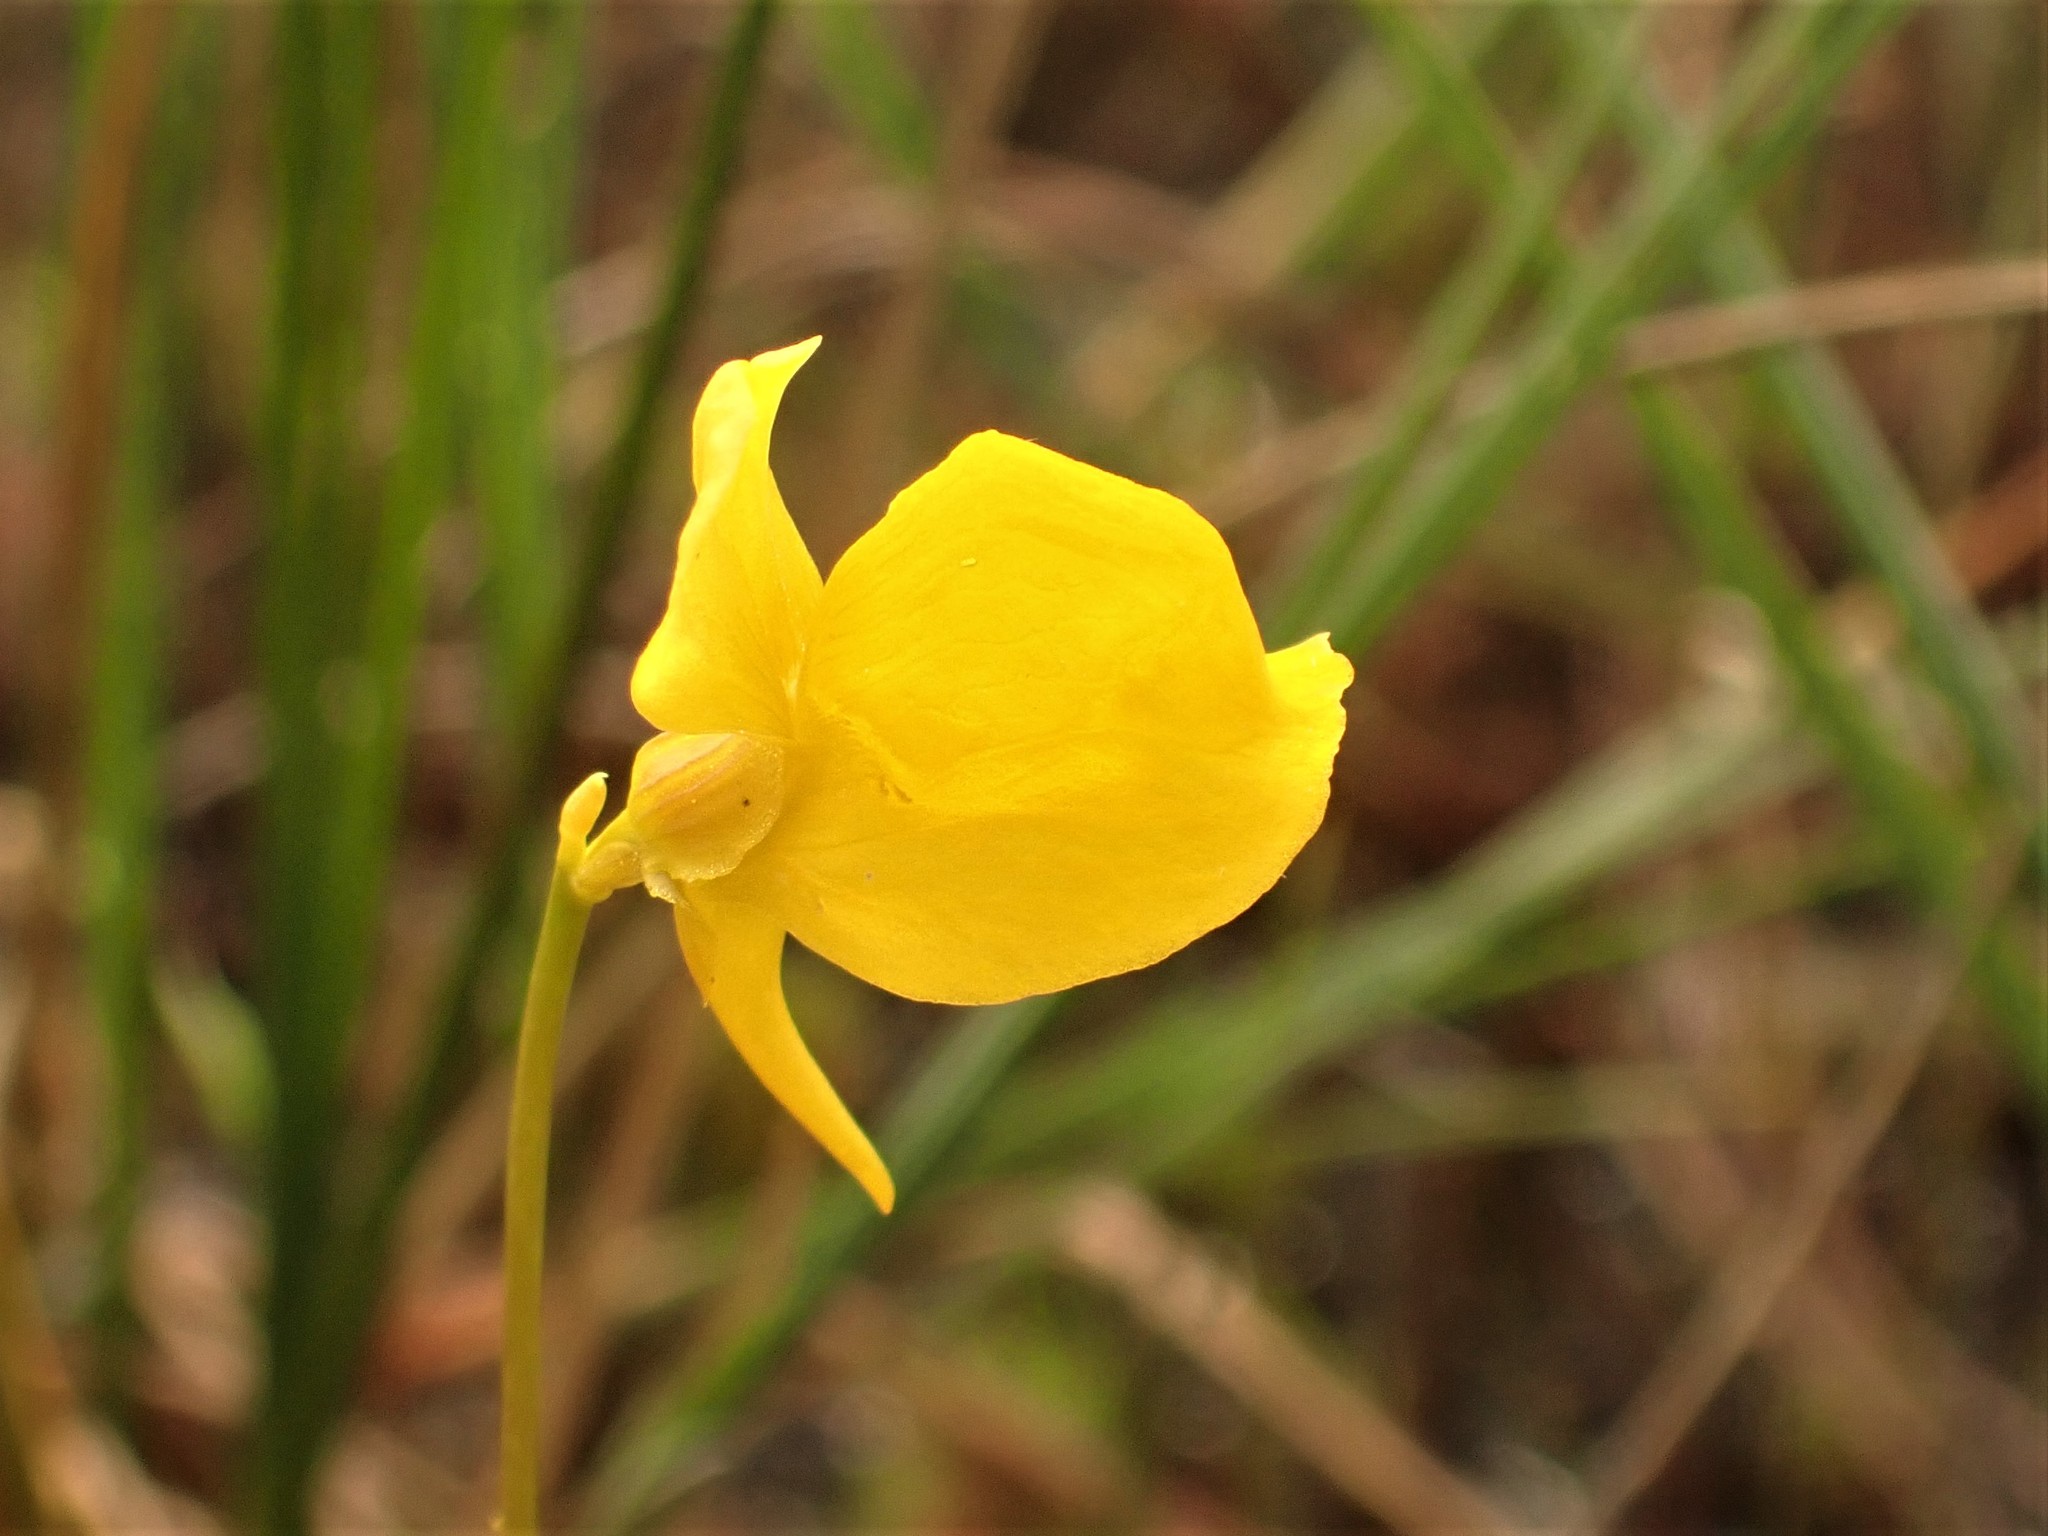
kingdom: Plantae
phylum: Tracheophyta
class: Magnoliopsida
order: Lamiales
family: Lentibulariaceae
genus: Utricularia
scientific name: Utricularia cornuta
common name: Horned bladderwort
